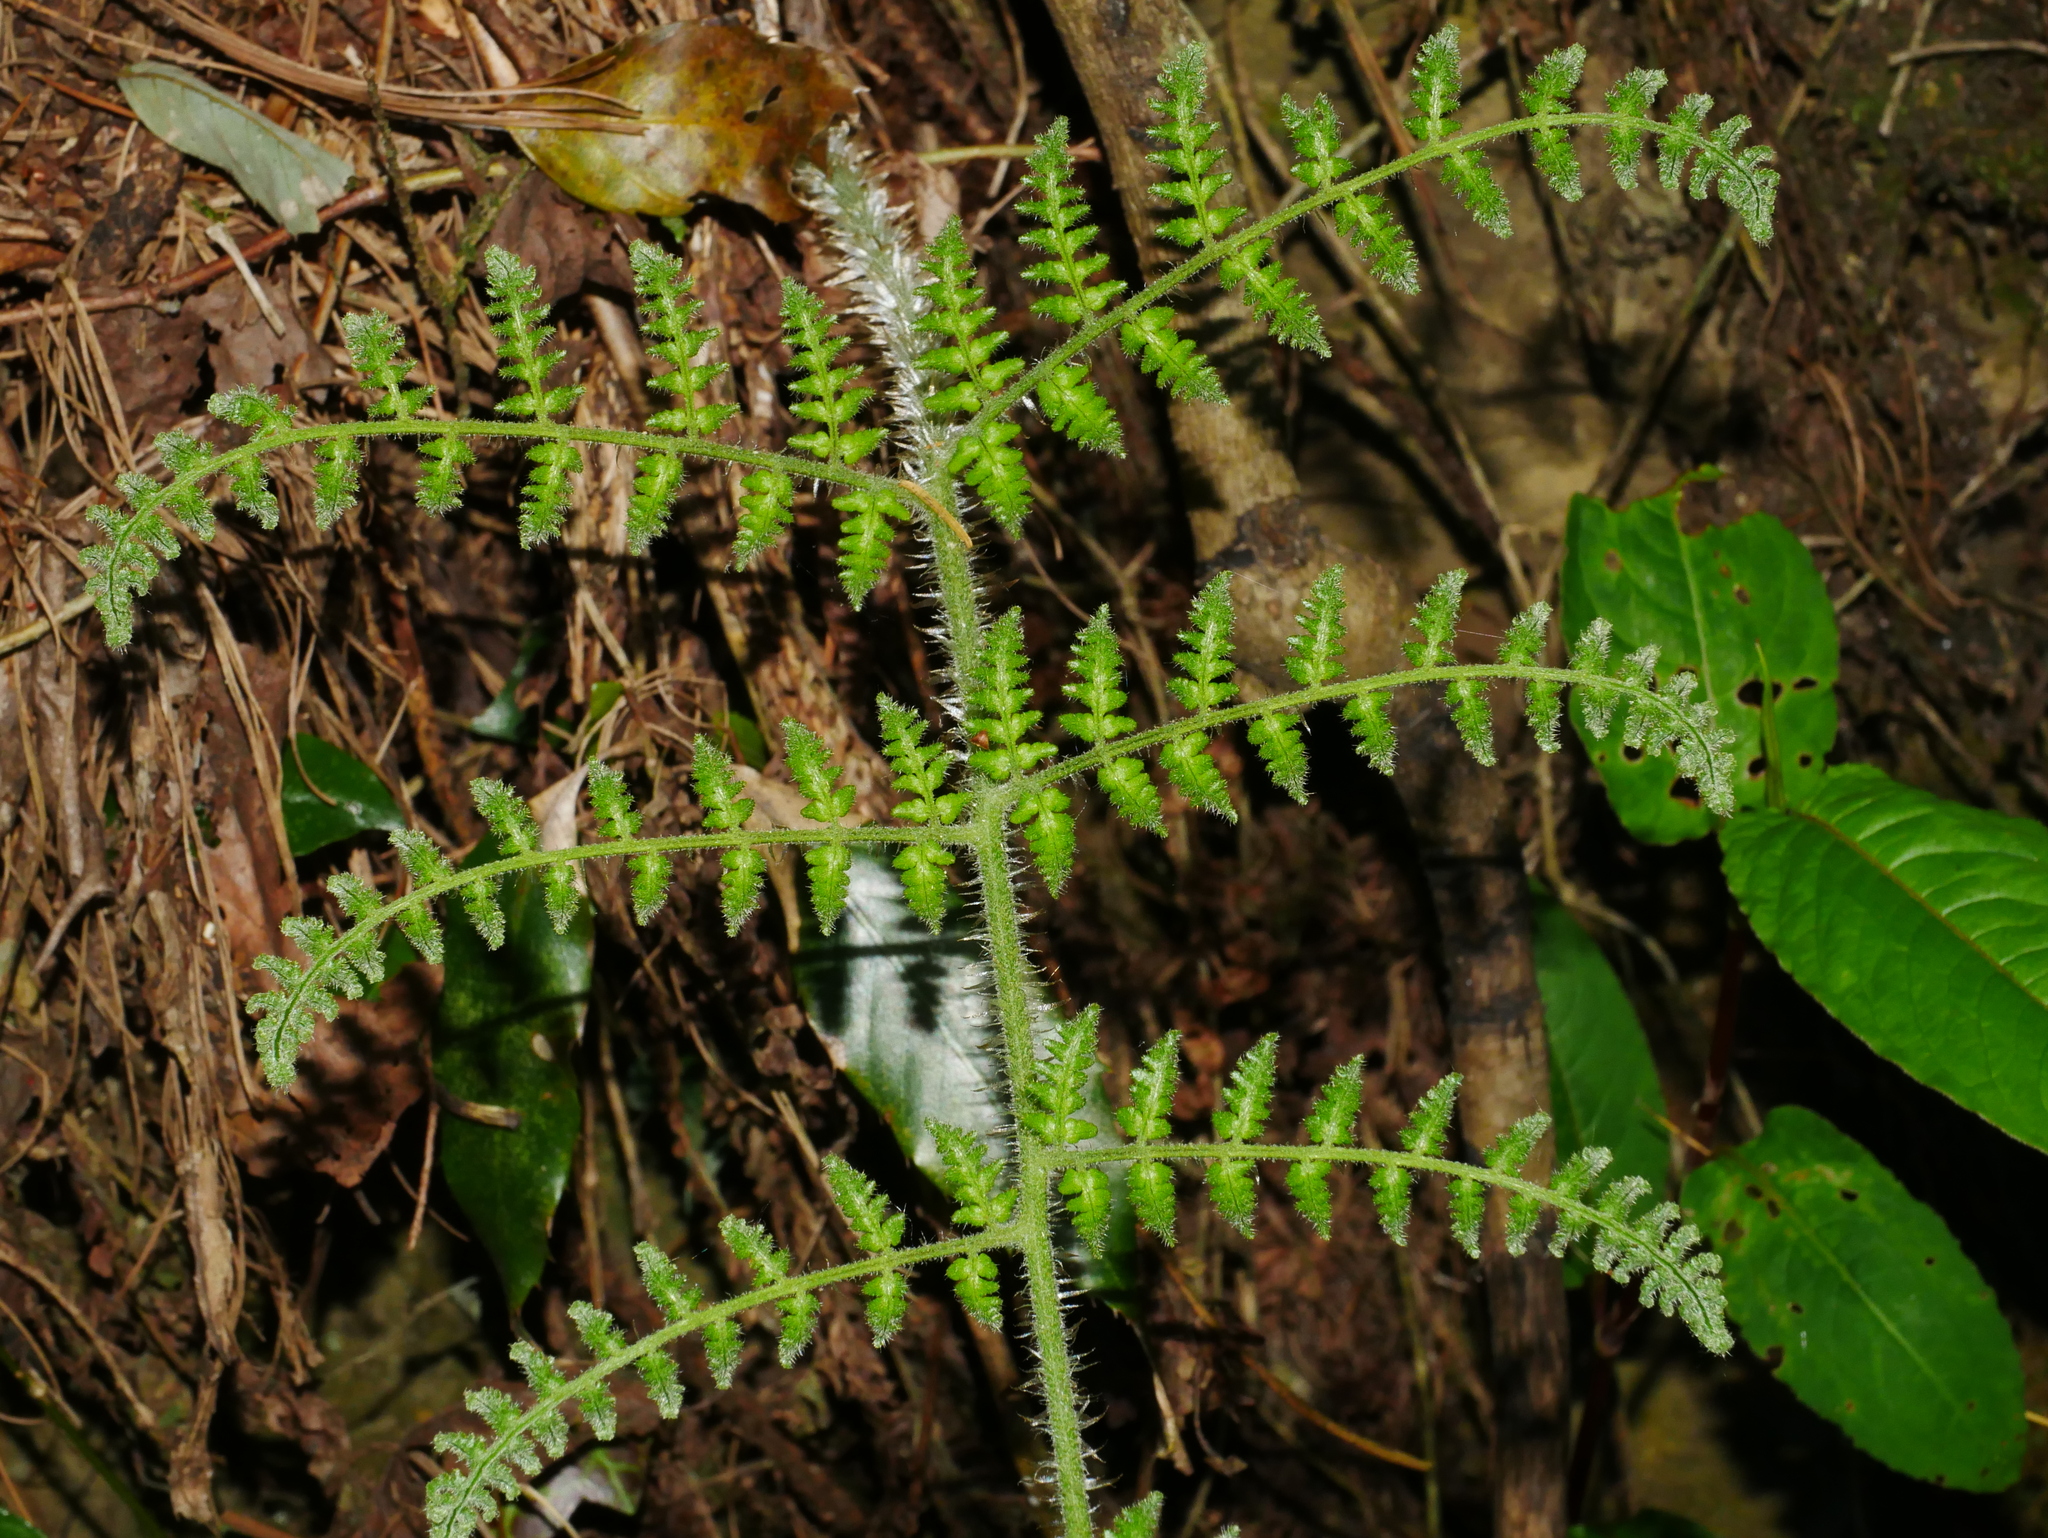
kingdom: Plantae
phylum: Tracheophyta
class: Polypodiopsida
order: Polypodiales
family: Dryopteridaceae
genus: Dryopteris
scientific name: Dryopteris peranema
